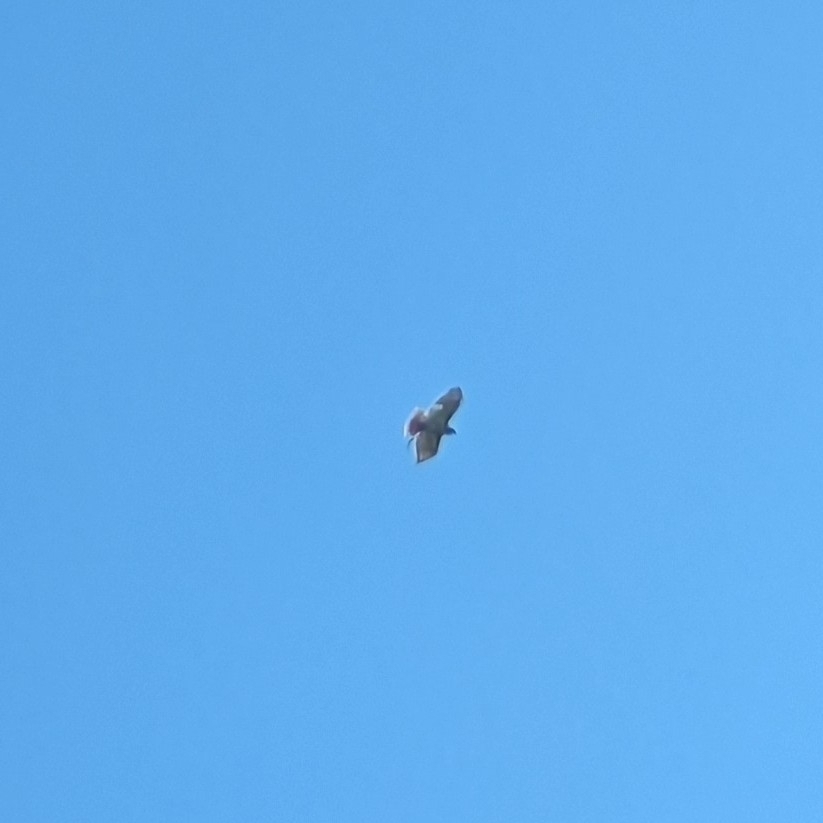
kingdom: Animalia
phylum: Chordata
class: Aves
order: Accipitriformes
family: Accipitridae
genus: Buteo
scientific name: Buteo jamaicensis
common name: Red-tailed hawk
